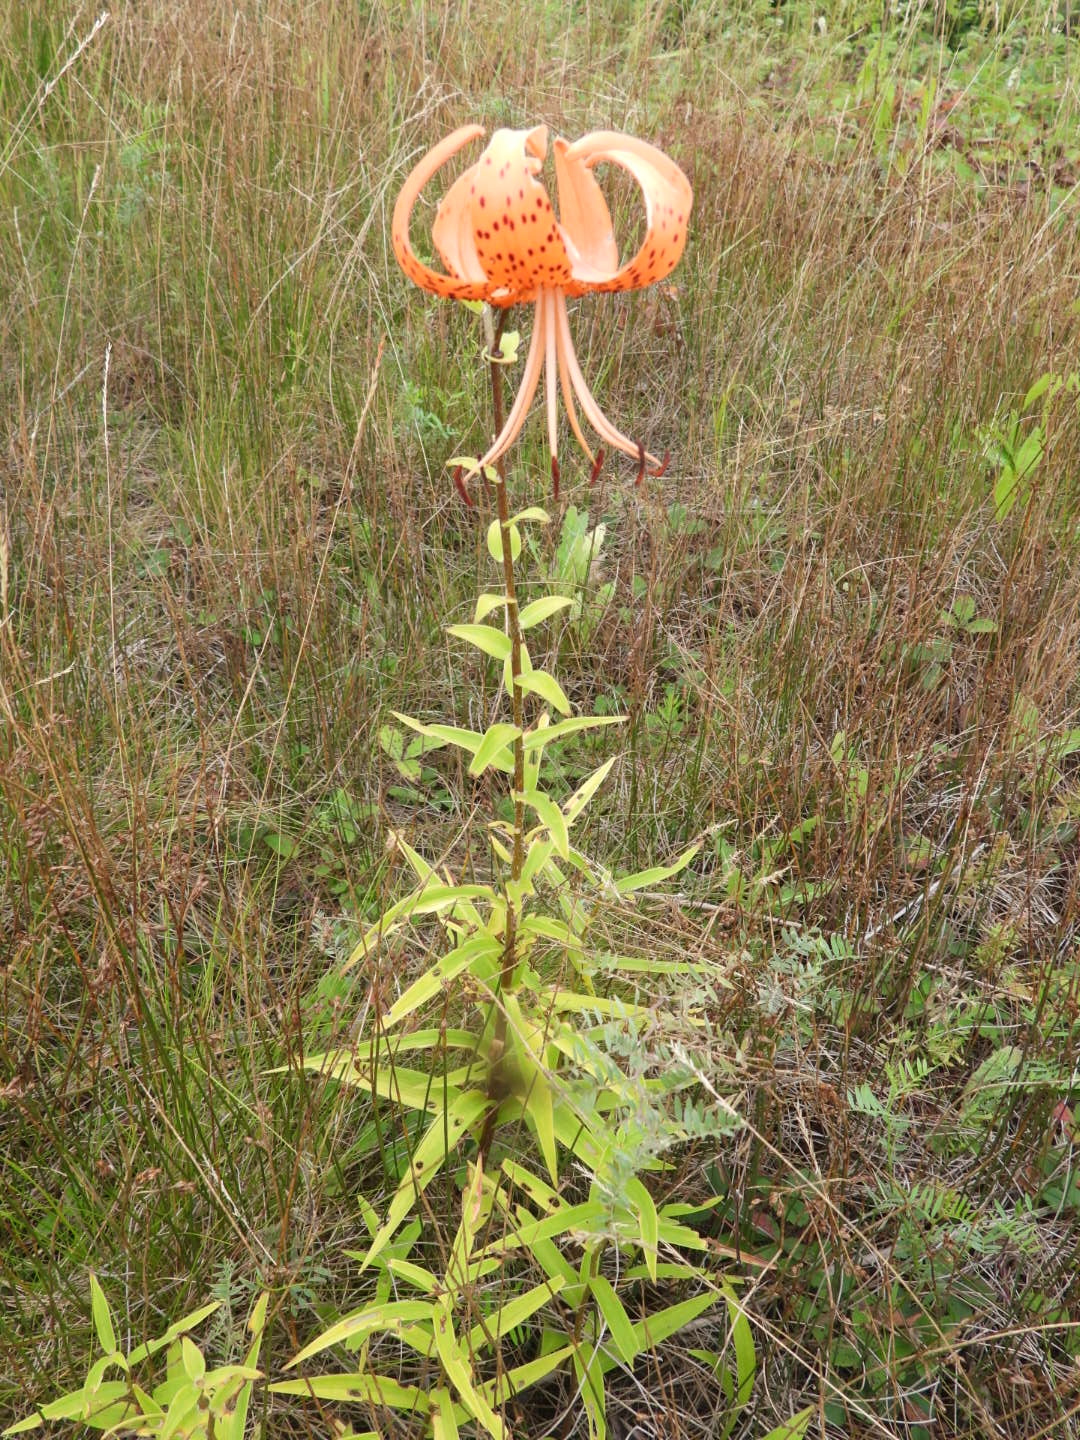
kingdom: Plantae
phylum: Tracheophyta
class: Liliopsida
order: Liliales
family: Liliaceae
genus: Lilium
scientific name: Lilium lancifolium
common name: Tiger lily
